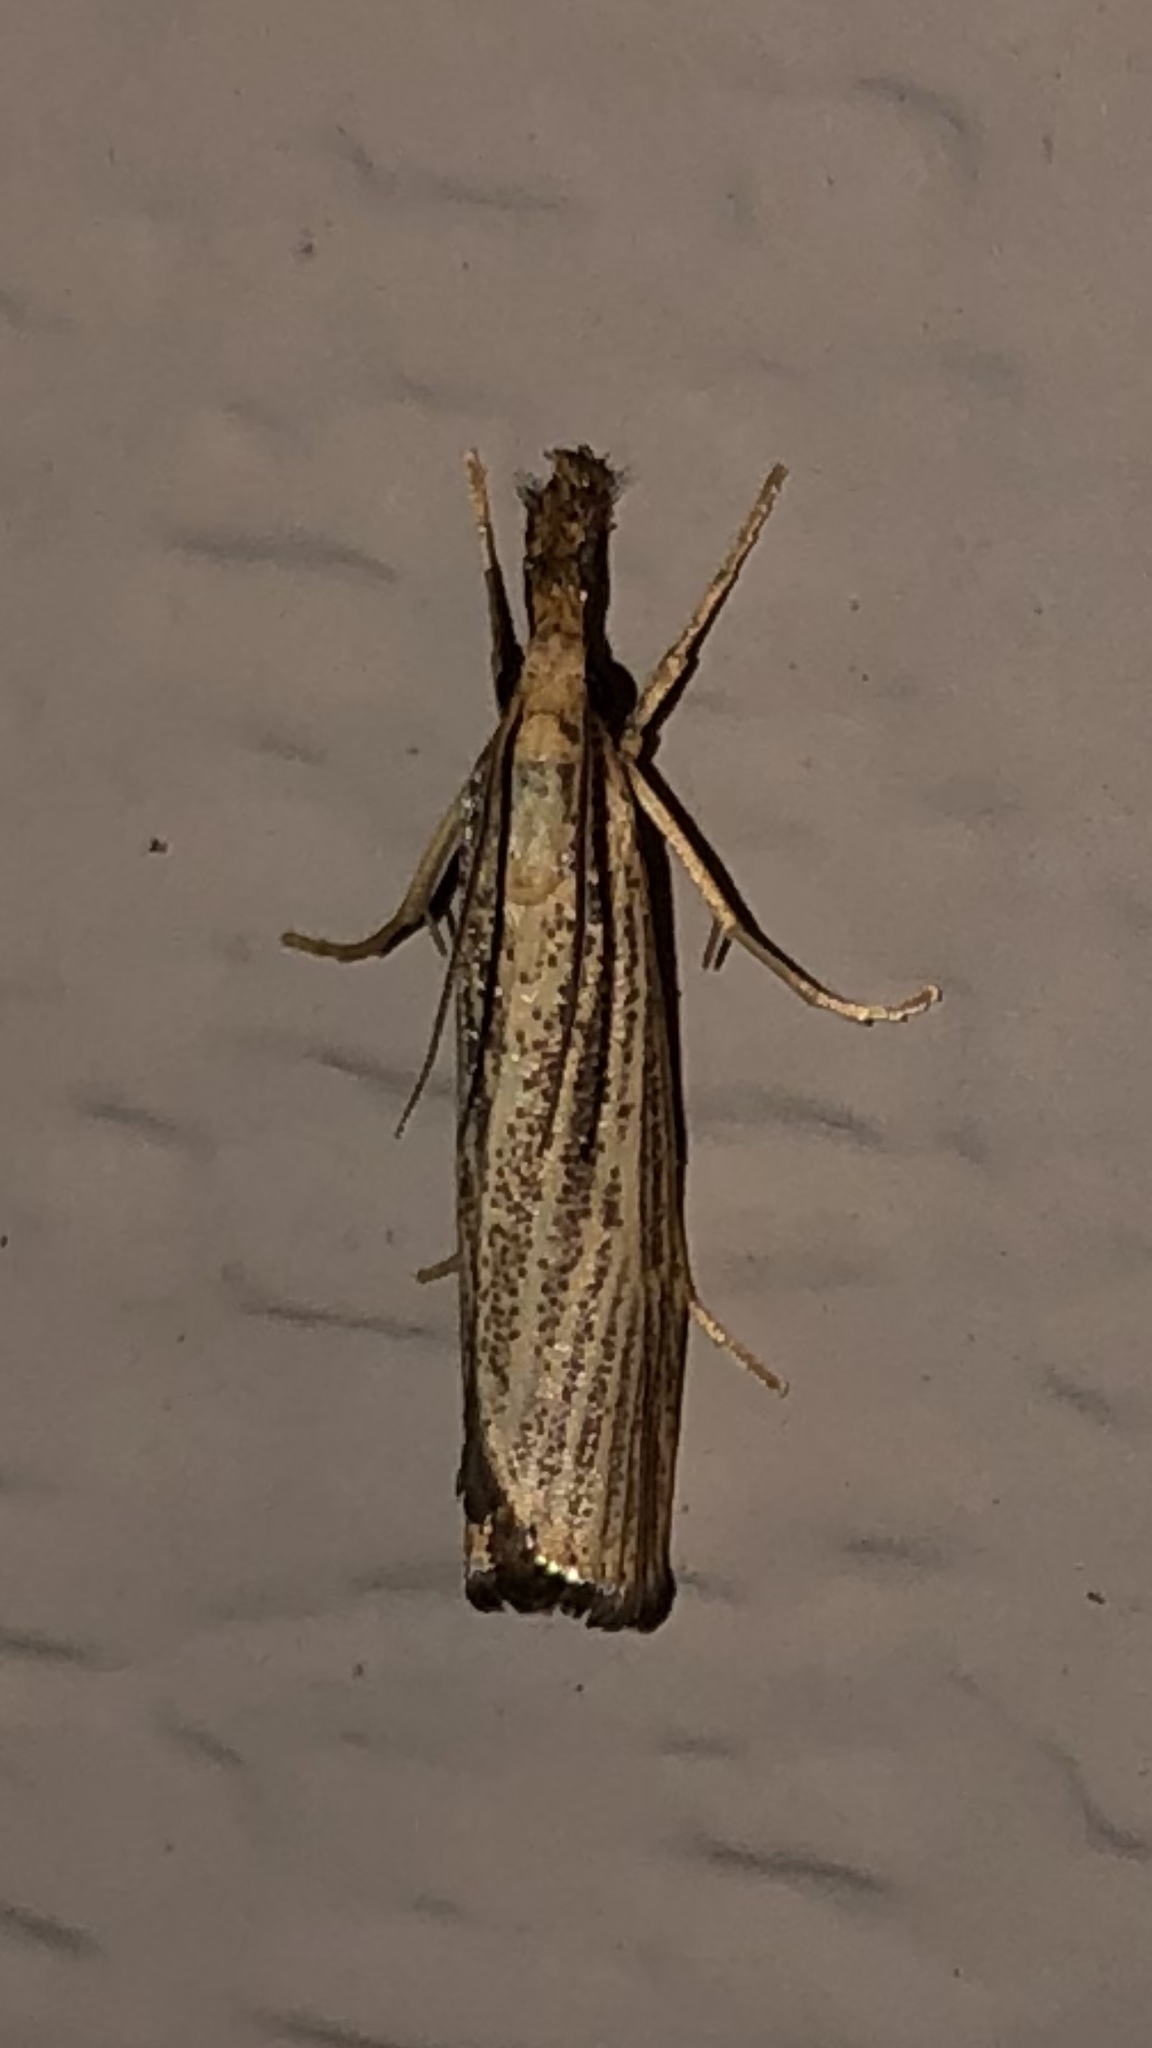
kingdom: Animalia
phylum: Arthropoda
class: Insecta
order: Lepidoptera
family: Crambidae
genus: Agriphila
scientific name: Agriphila vulgivagellus
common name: Vagabond crambus moth
